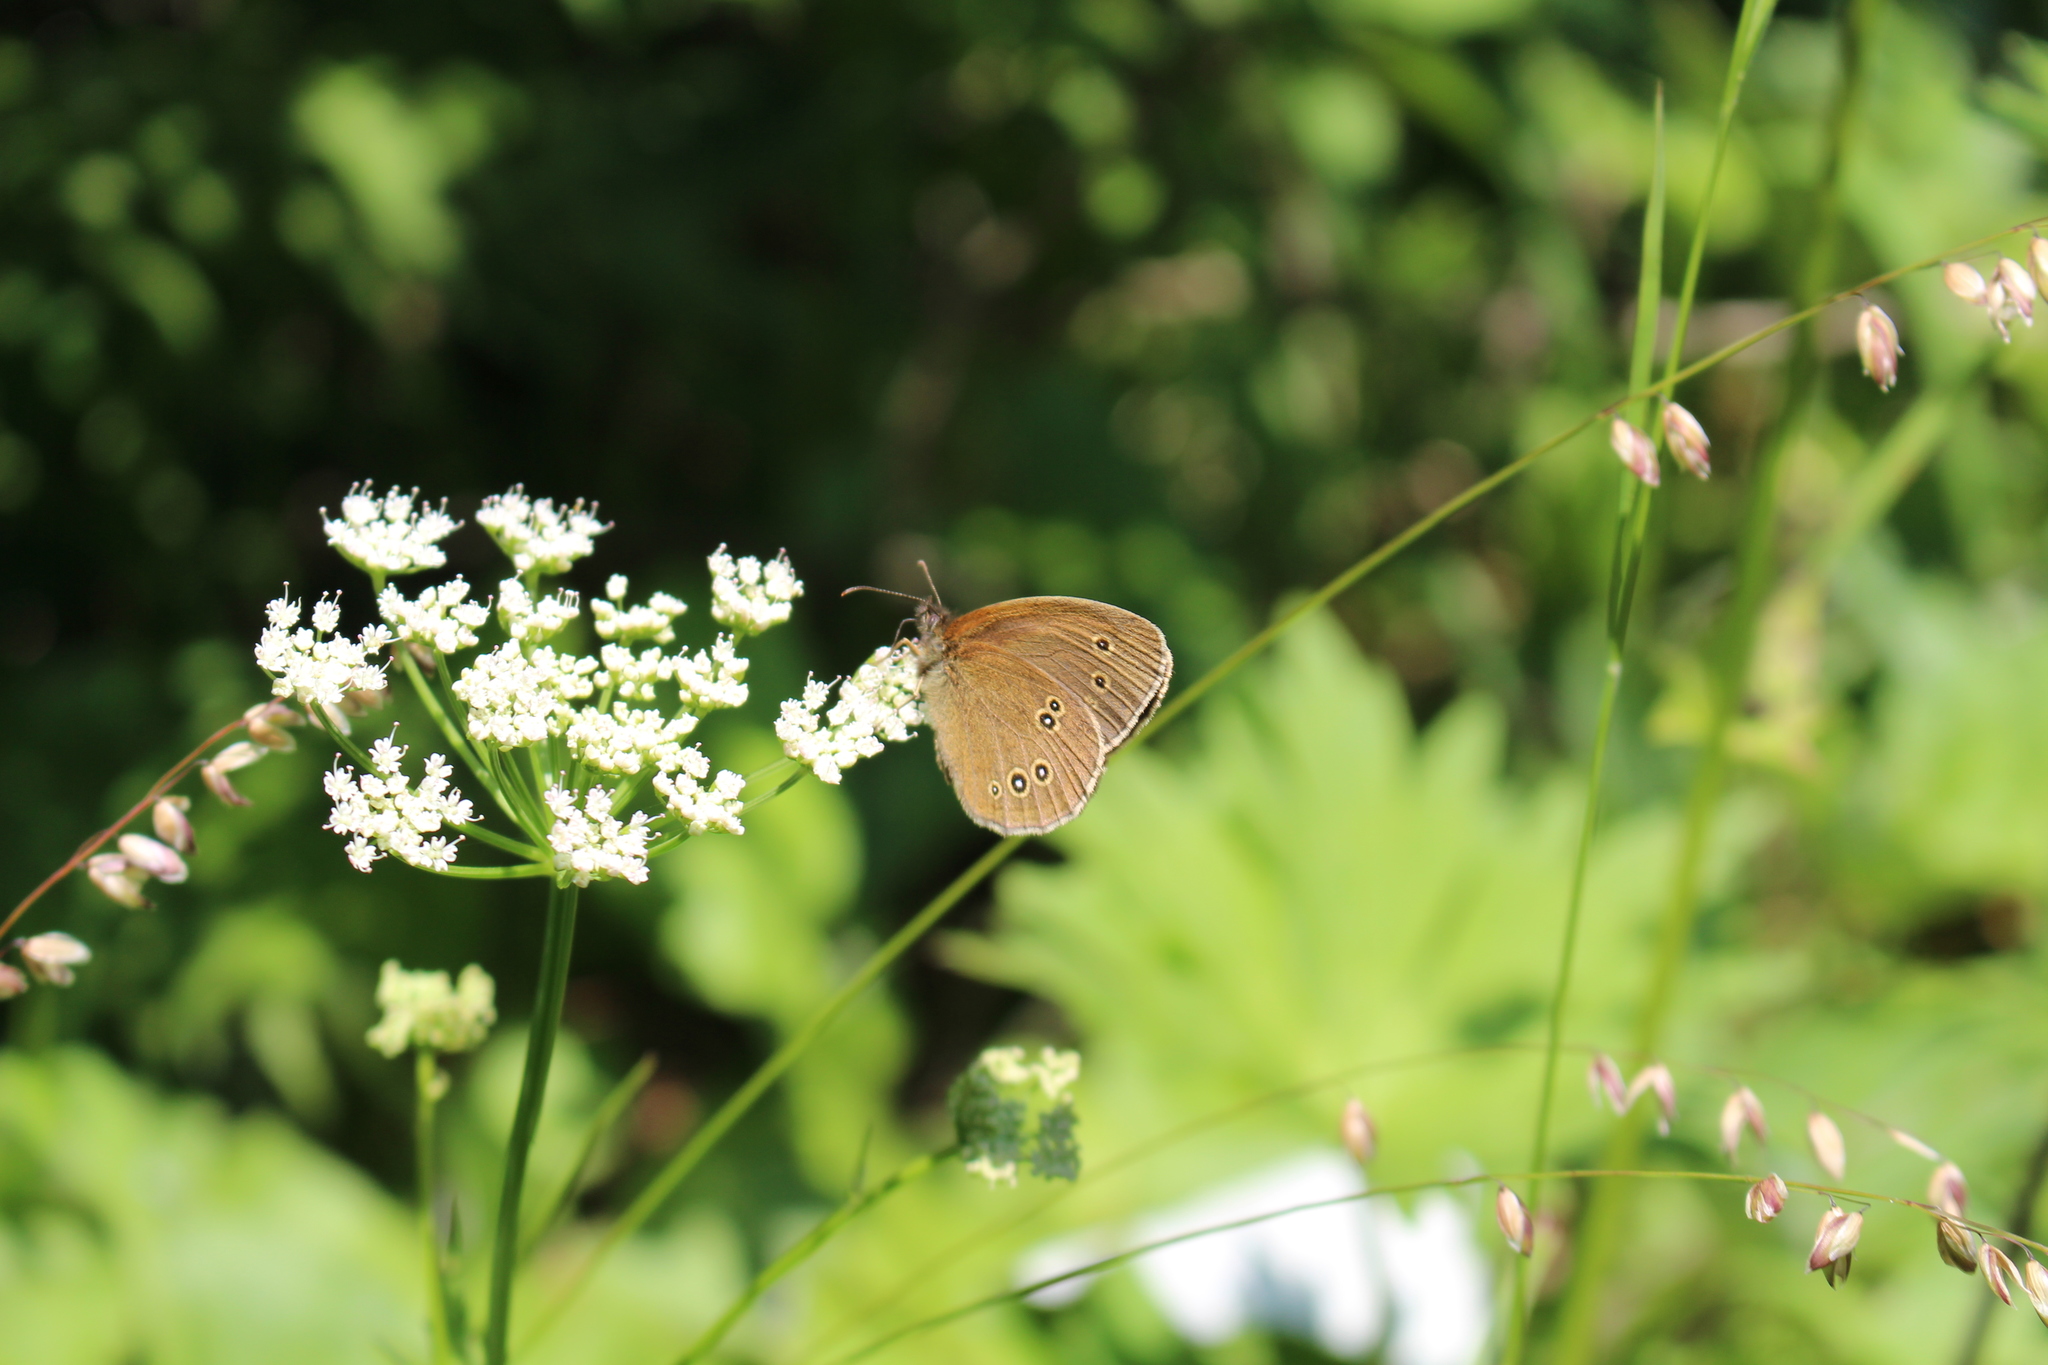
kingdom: Animalia
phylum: Arthropoda
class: Insecta
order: Lepidoptera
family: Nymphalidae
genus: Aphantopus
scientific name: Aphantopus hyperantus
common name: Ringlet
